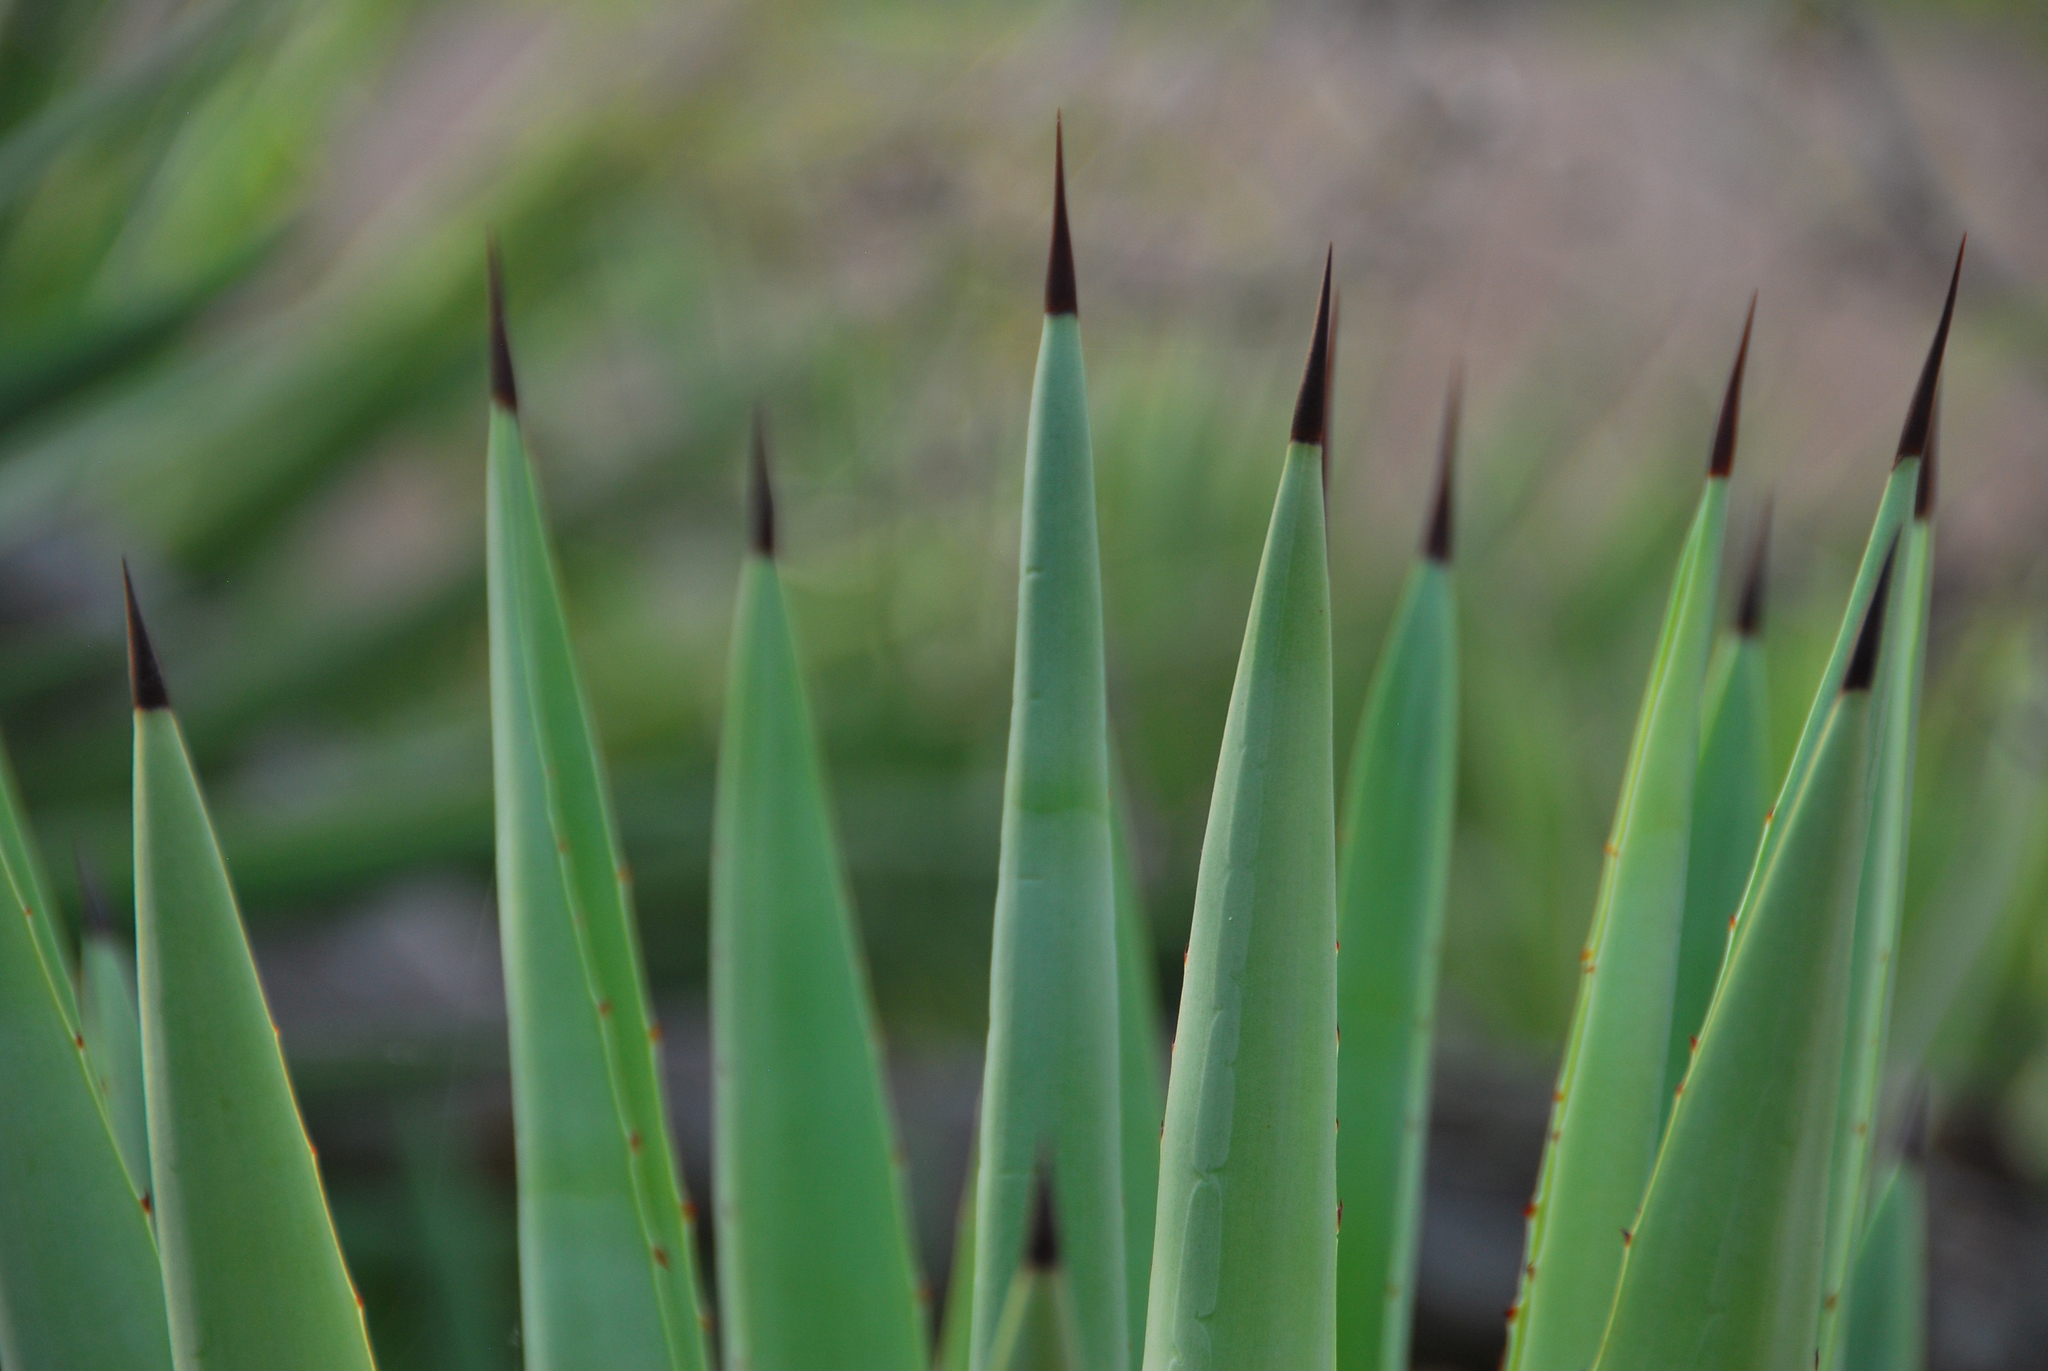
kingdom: Plantae
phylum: Tracheophyta
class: Liliopsida
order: Asparagales
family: Asparagaceae
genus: Agave
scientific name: Agave sisalana
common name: Sisal hemp
